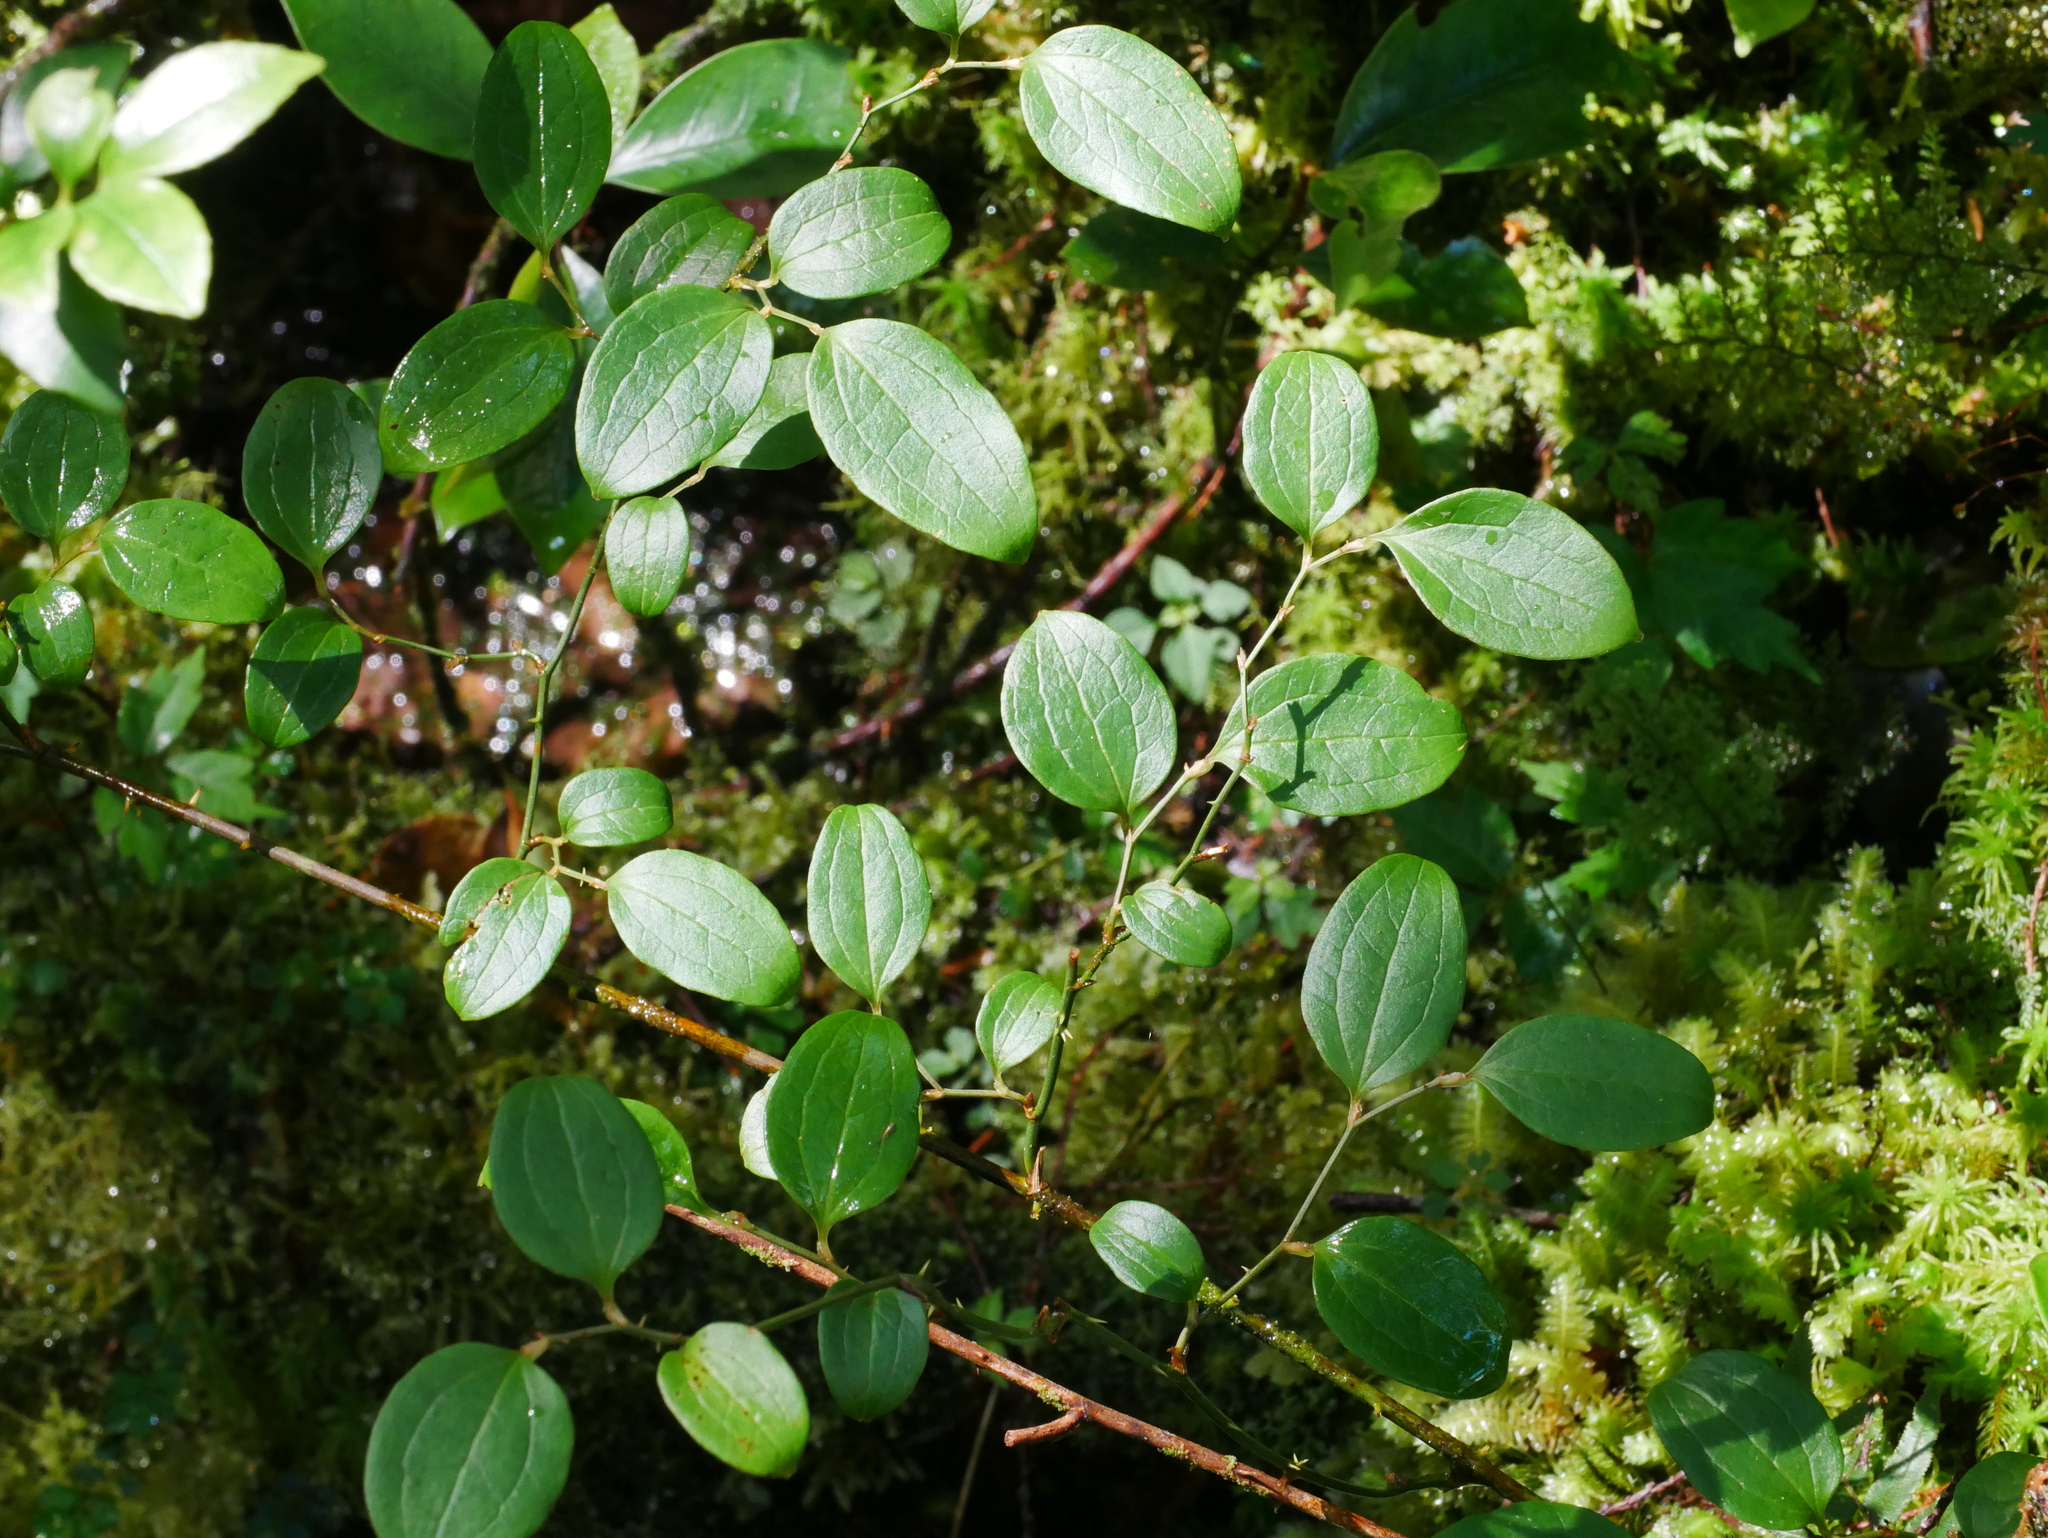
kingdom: Plantae
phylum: Tracheophyta
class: Liliopsida
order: Liliales
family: Smilacaceae
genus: Smilax
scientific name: Smilax discotis
